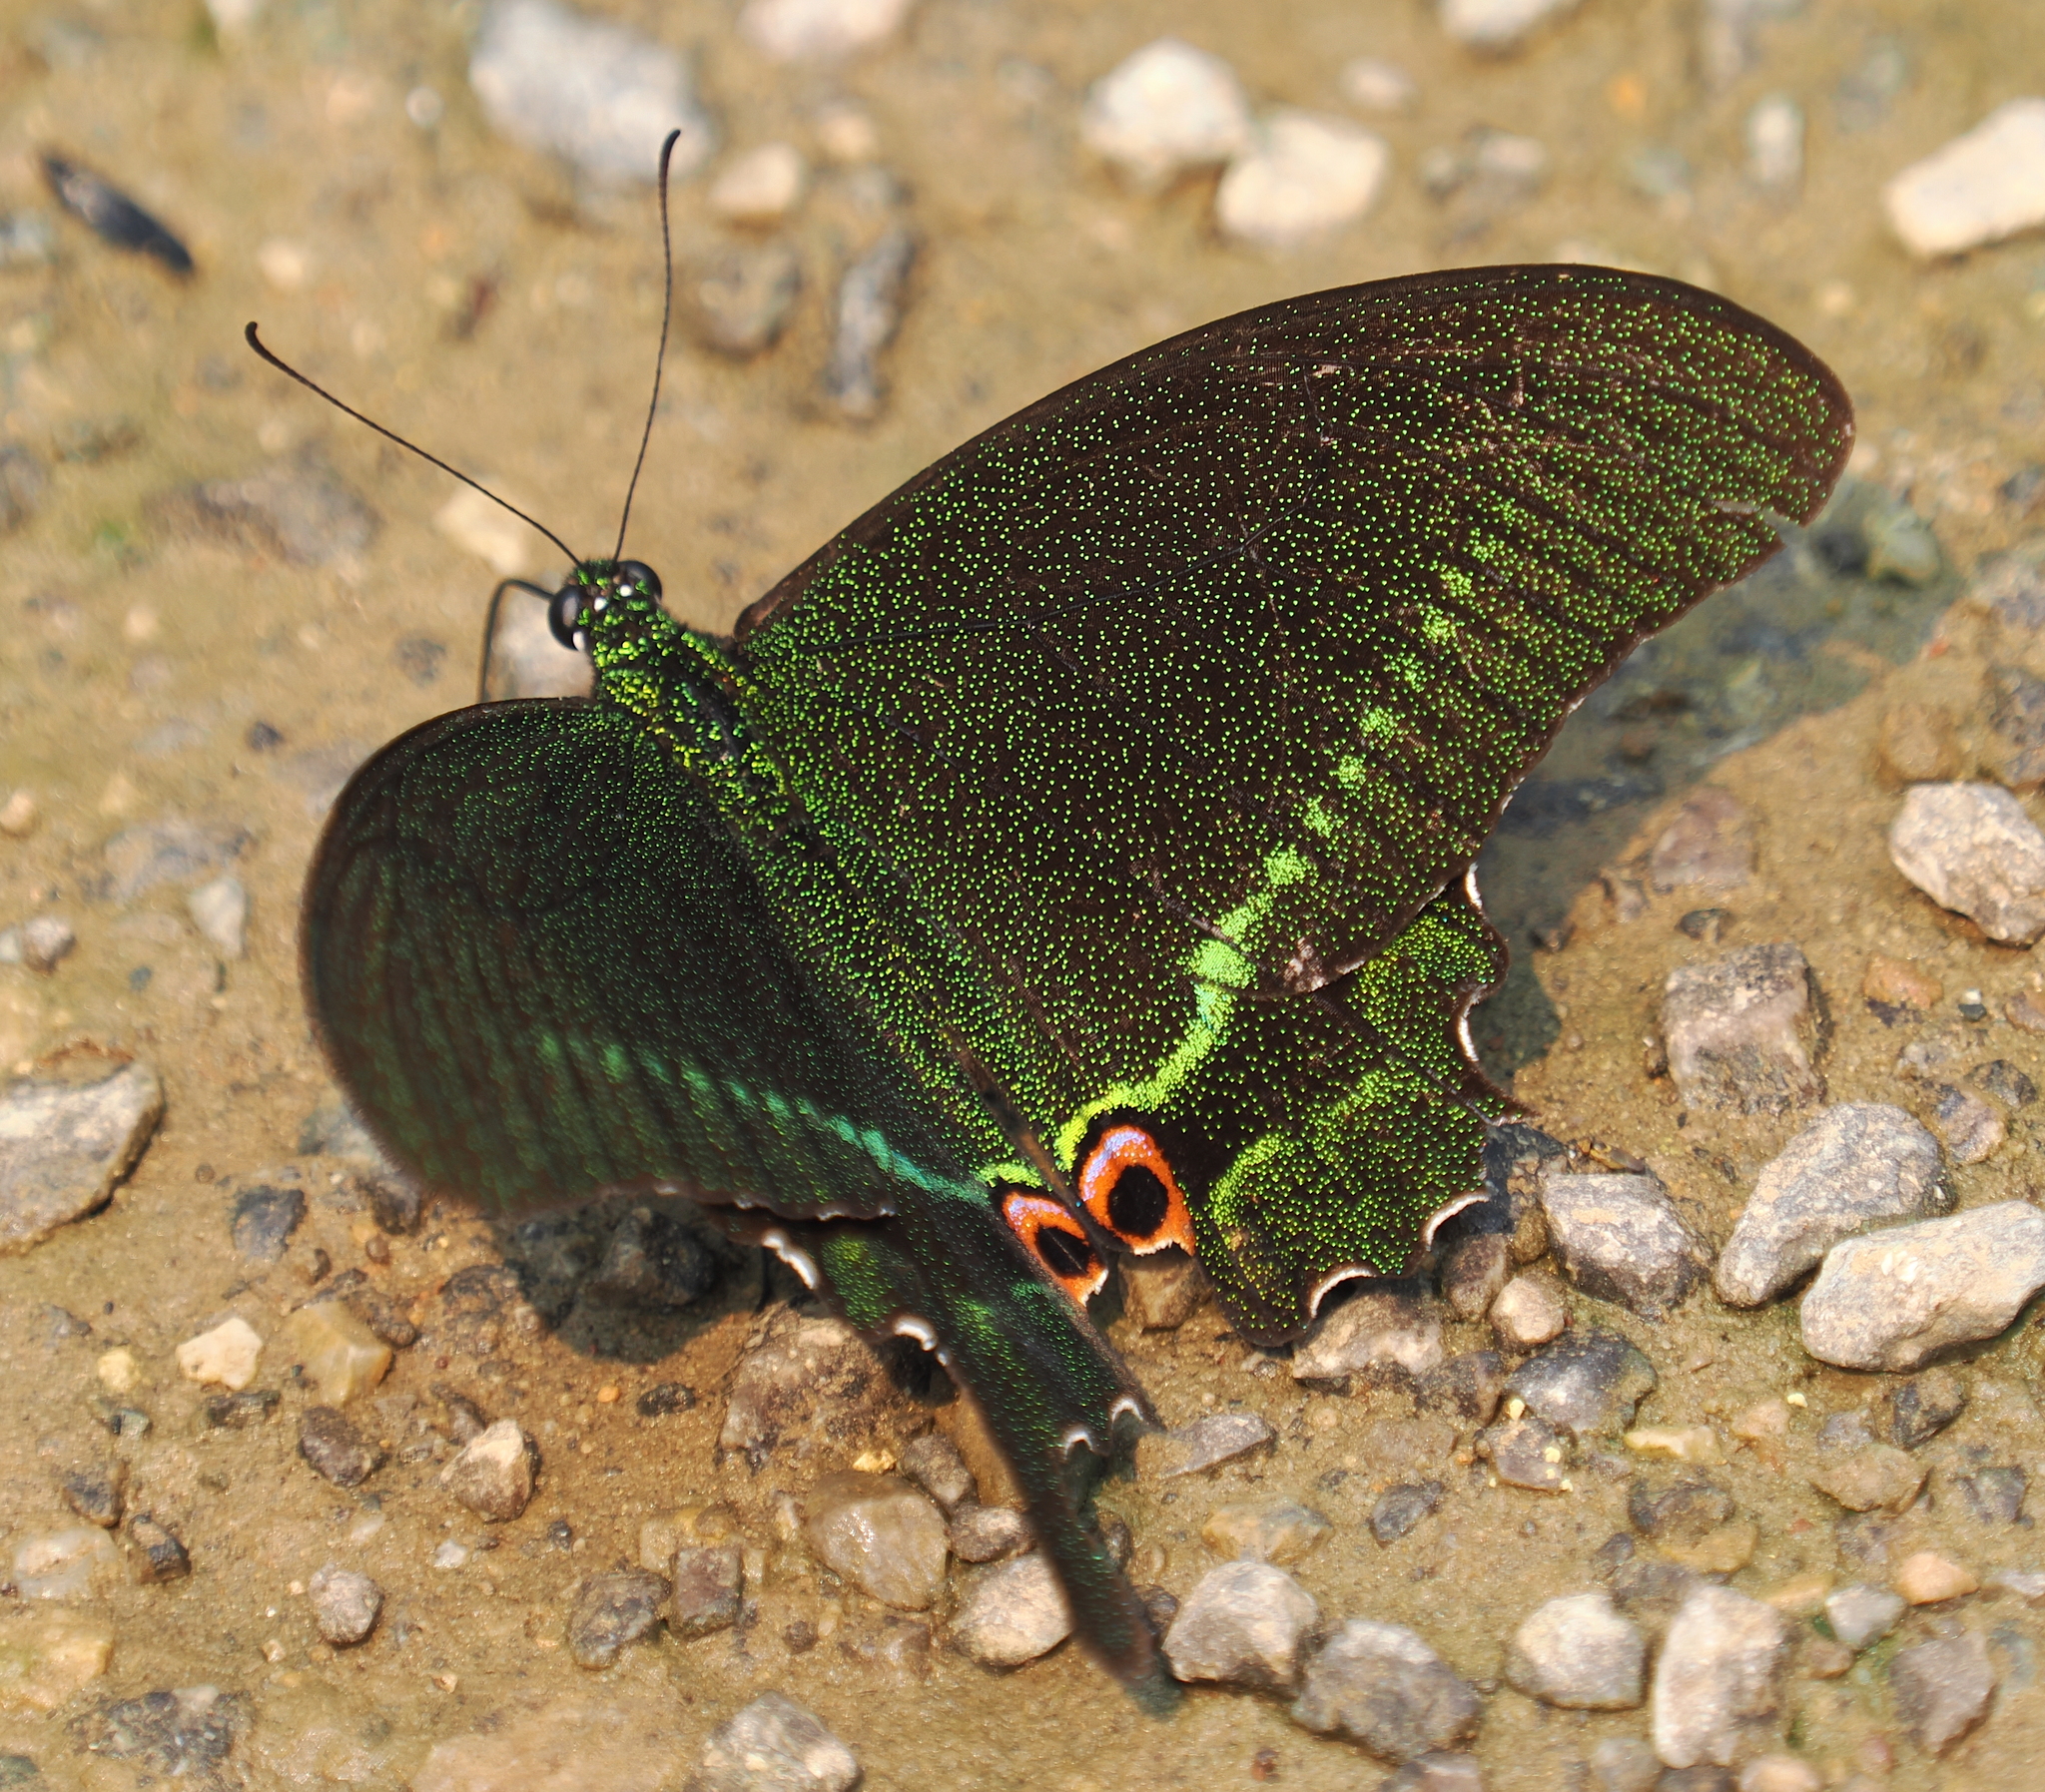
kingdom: Animalia
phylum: Arthropoda
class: Insecta
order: Lepidoptera
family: Papilionidae
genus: Papilio
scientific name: Papilio paris
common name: Paris peacock
